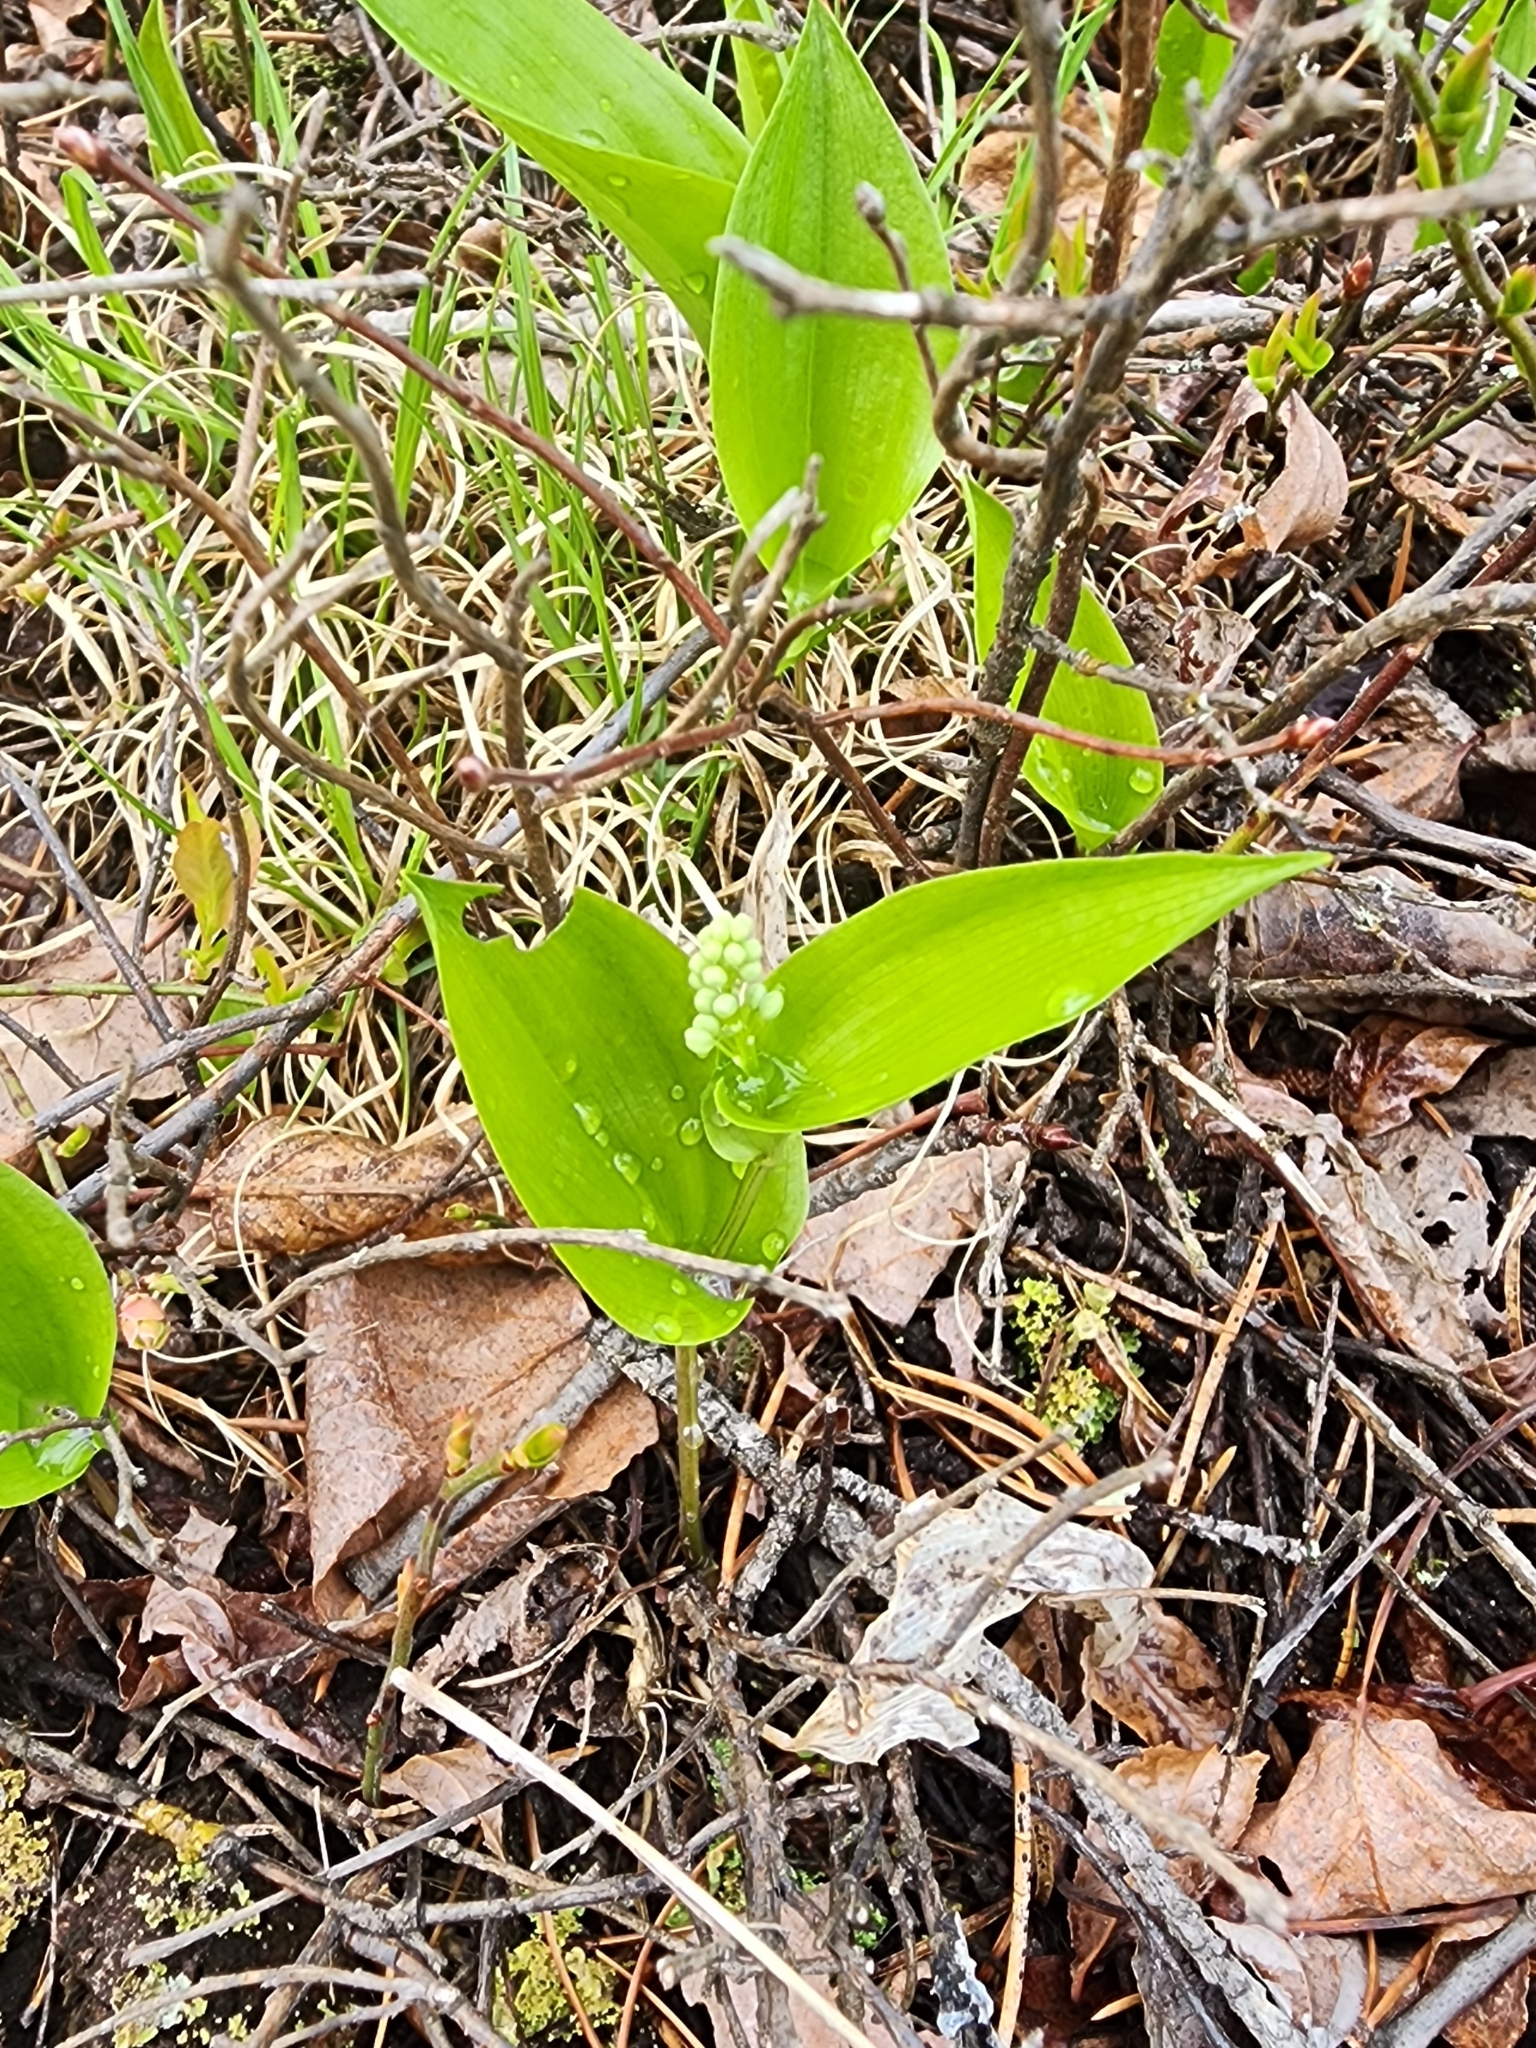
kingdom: Plantae
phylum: Tracheophyta
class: Liliopsida
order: Asparagales
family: Asparagaceae
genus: Maianthemum
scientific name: Maianthemum canadense
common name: False lily-of-the-valley
